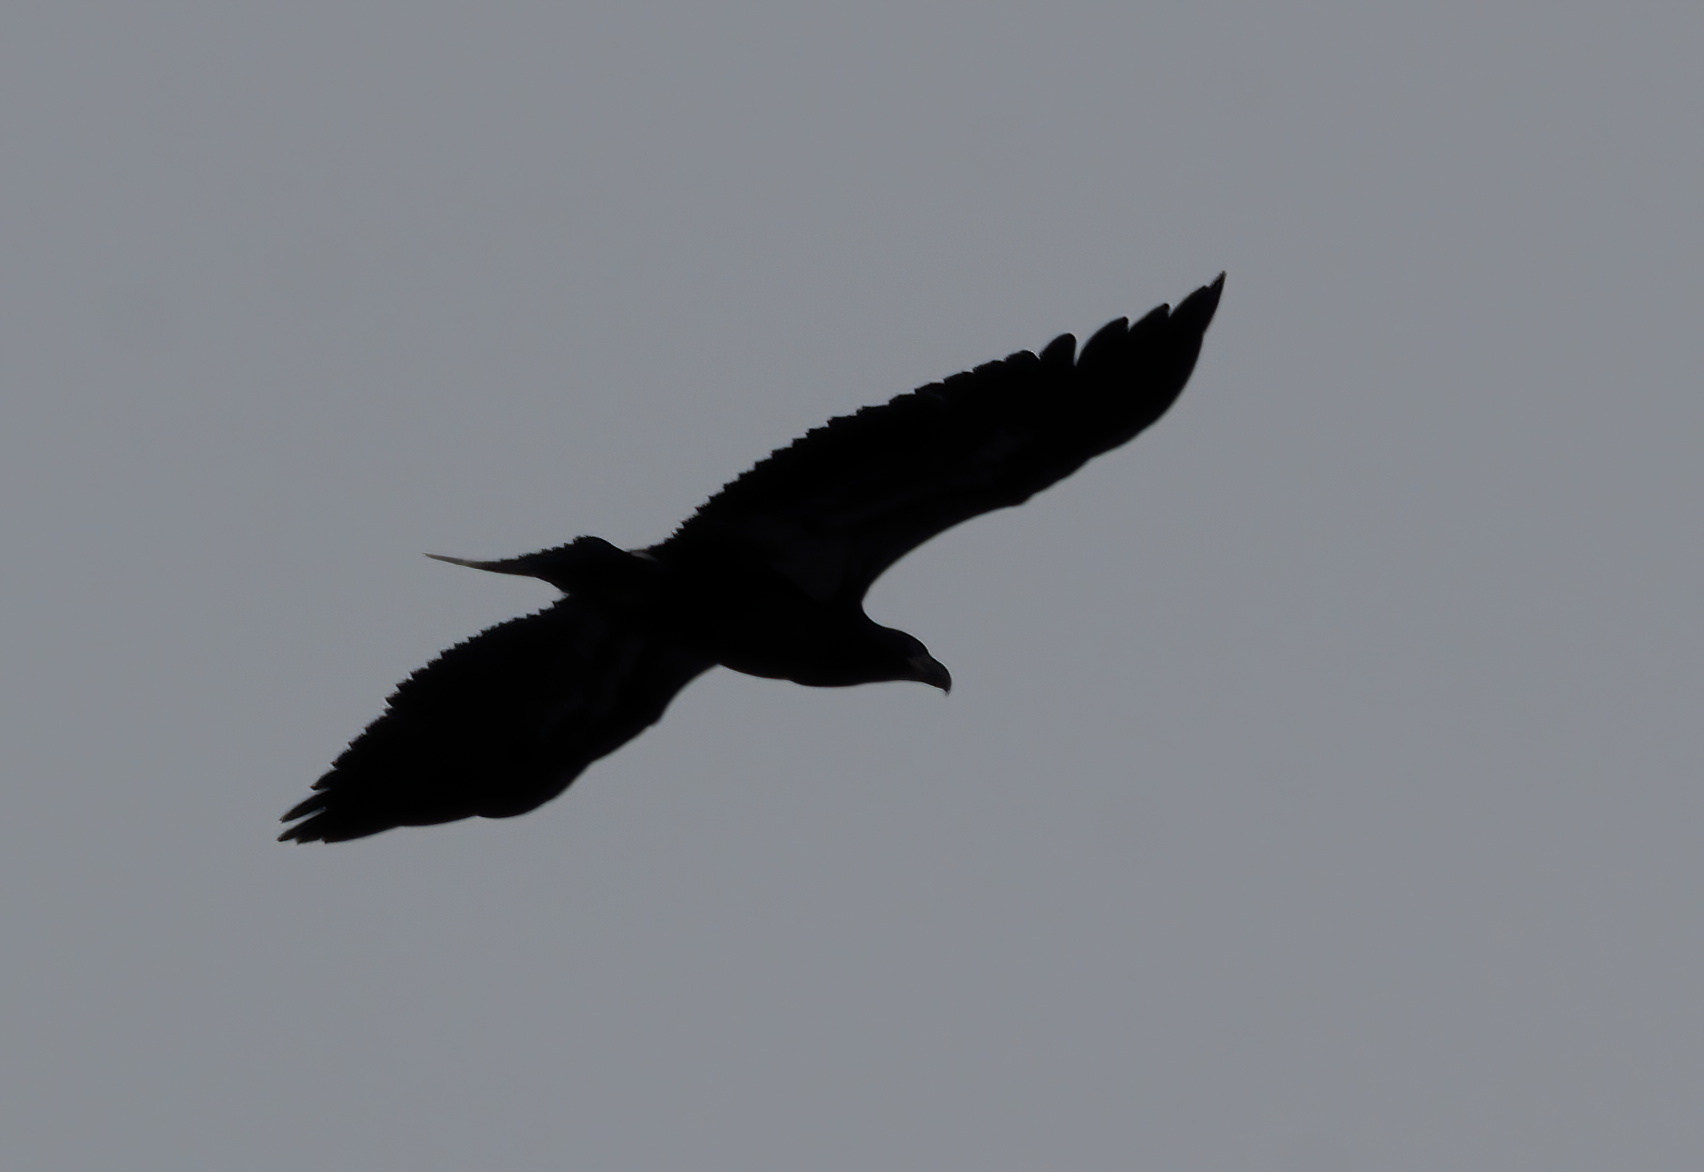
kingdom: Animalia
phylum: Chordata
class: Aves
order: Accipitriformes
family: Accipitridae
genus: Haliaeetus
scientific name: Haliaeetus leucocephalus
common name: Bald eagle
